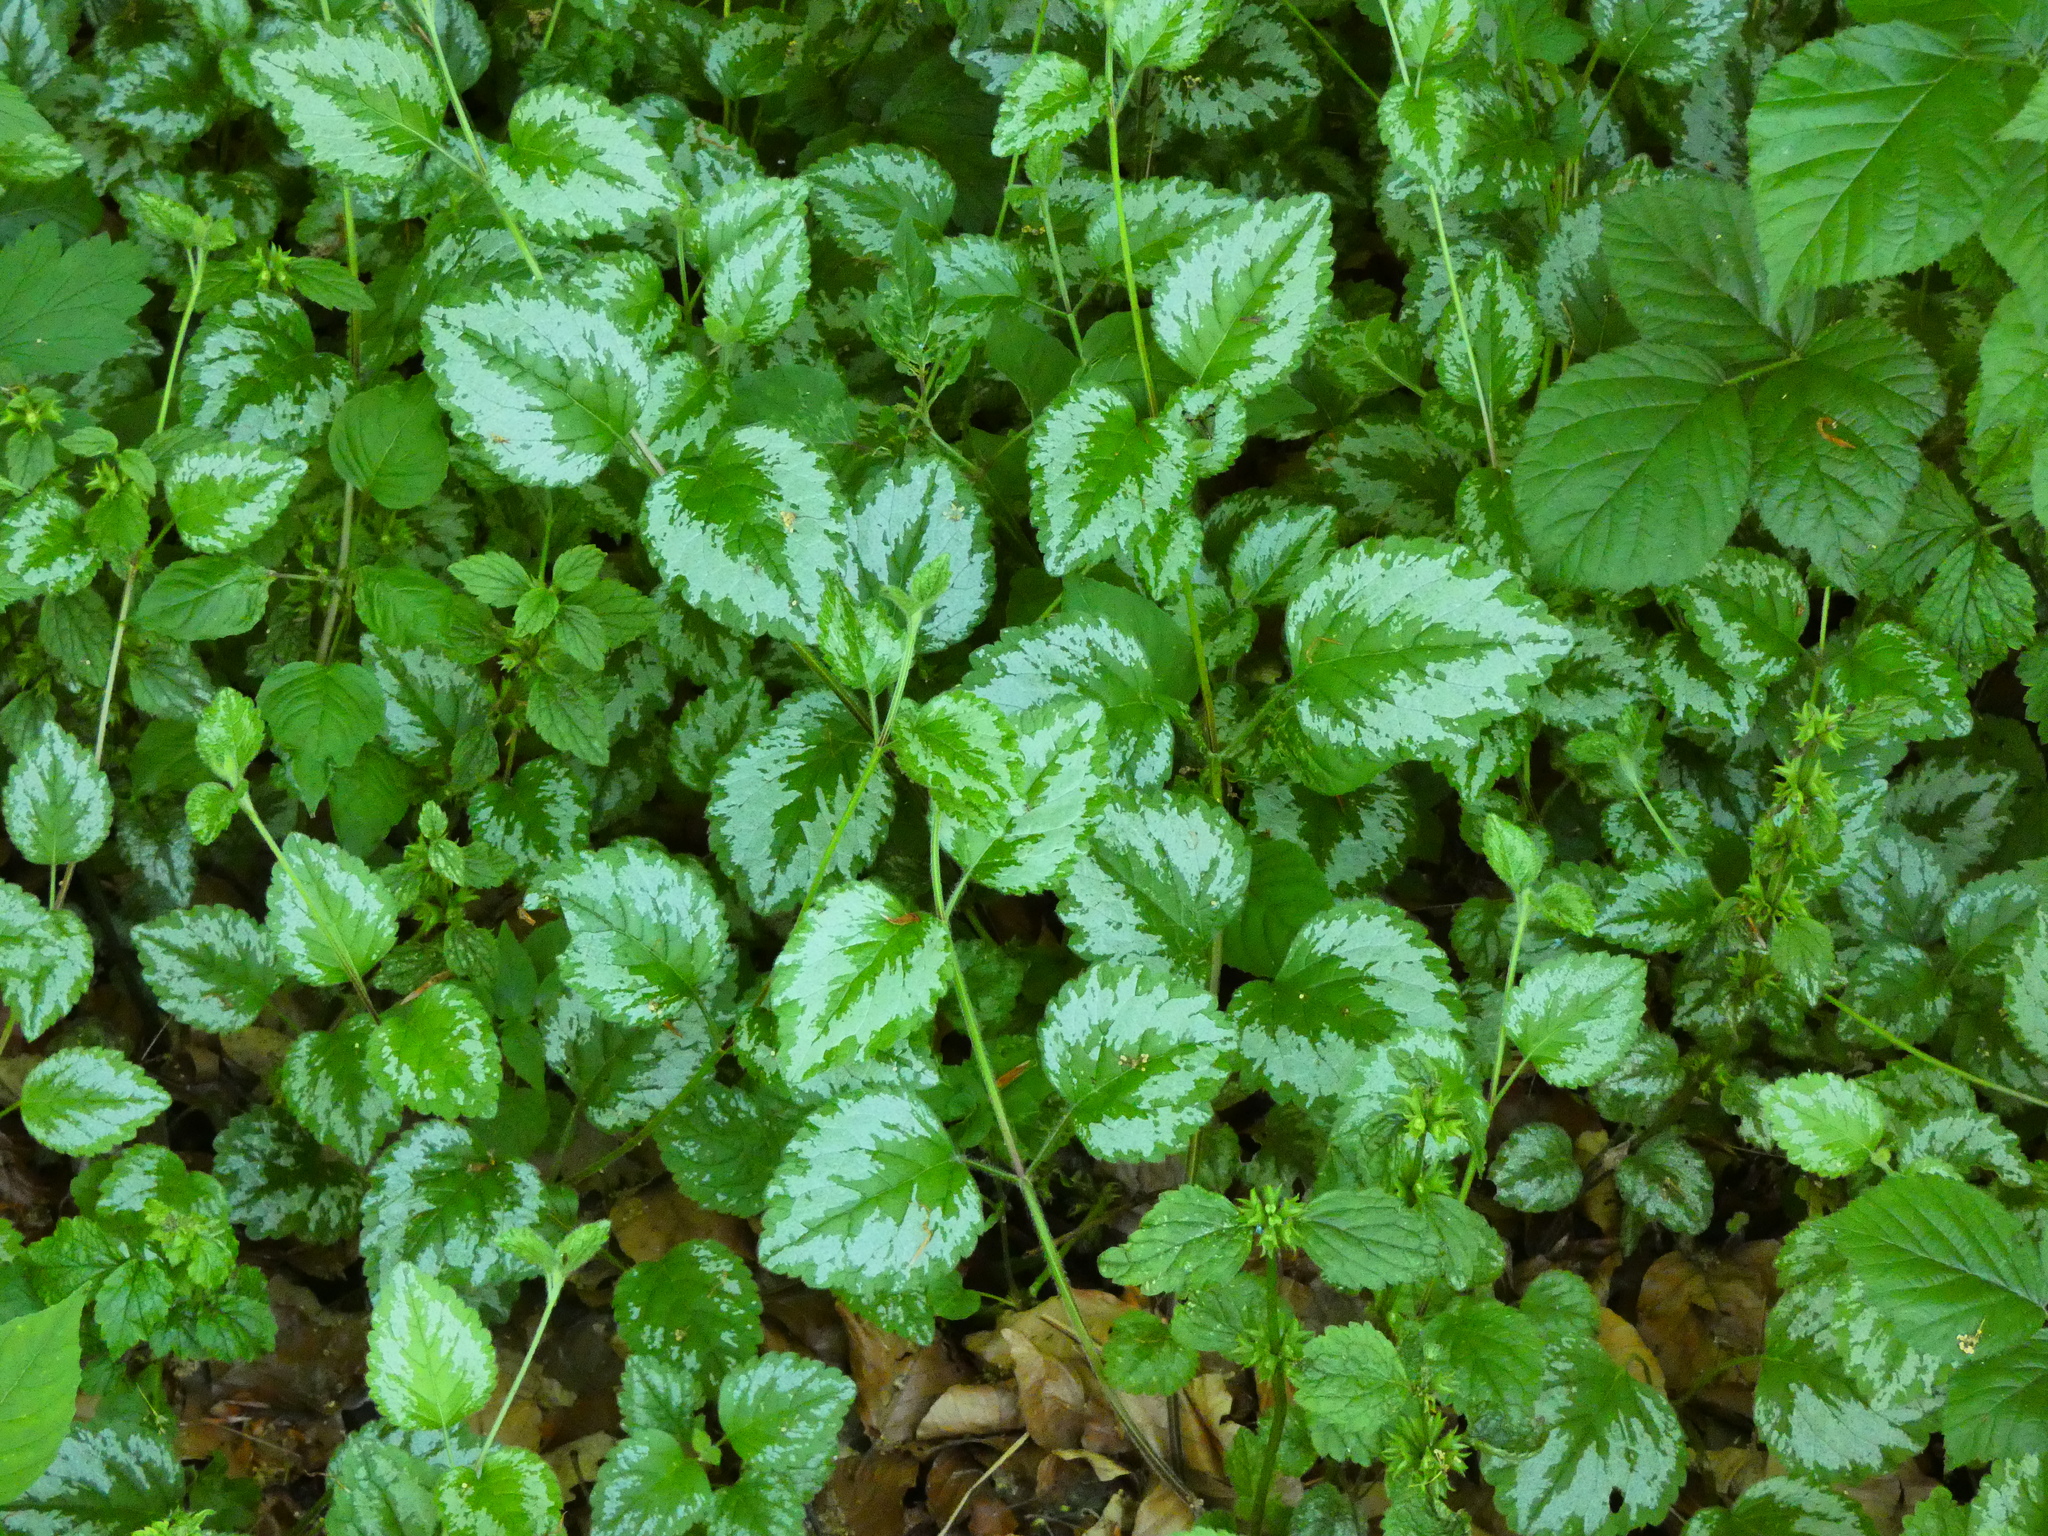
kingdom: Plantae
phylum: Tracheophyta
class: Magnoliopsida
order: Lamiales
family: Lamiaceae
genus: Lamium
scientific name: Lamium galeobdolon
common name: Yellow archangel
